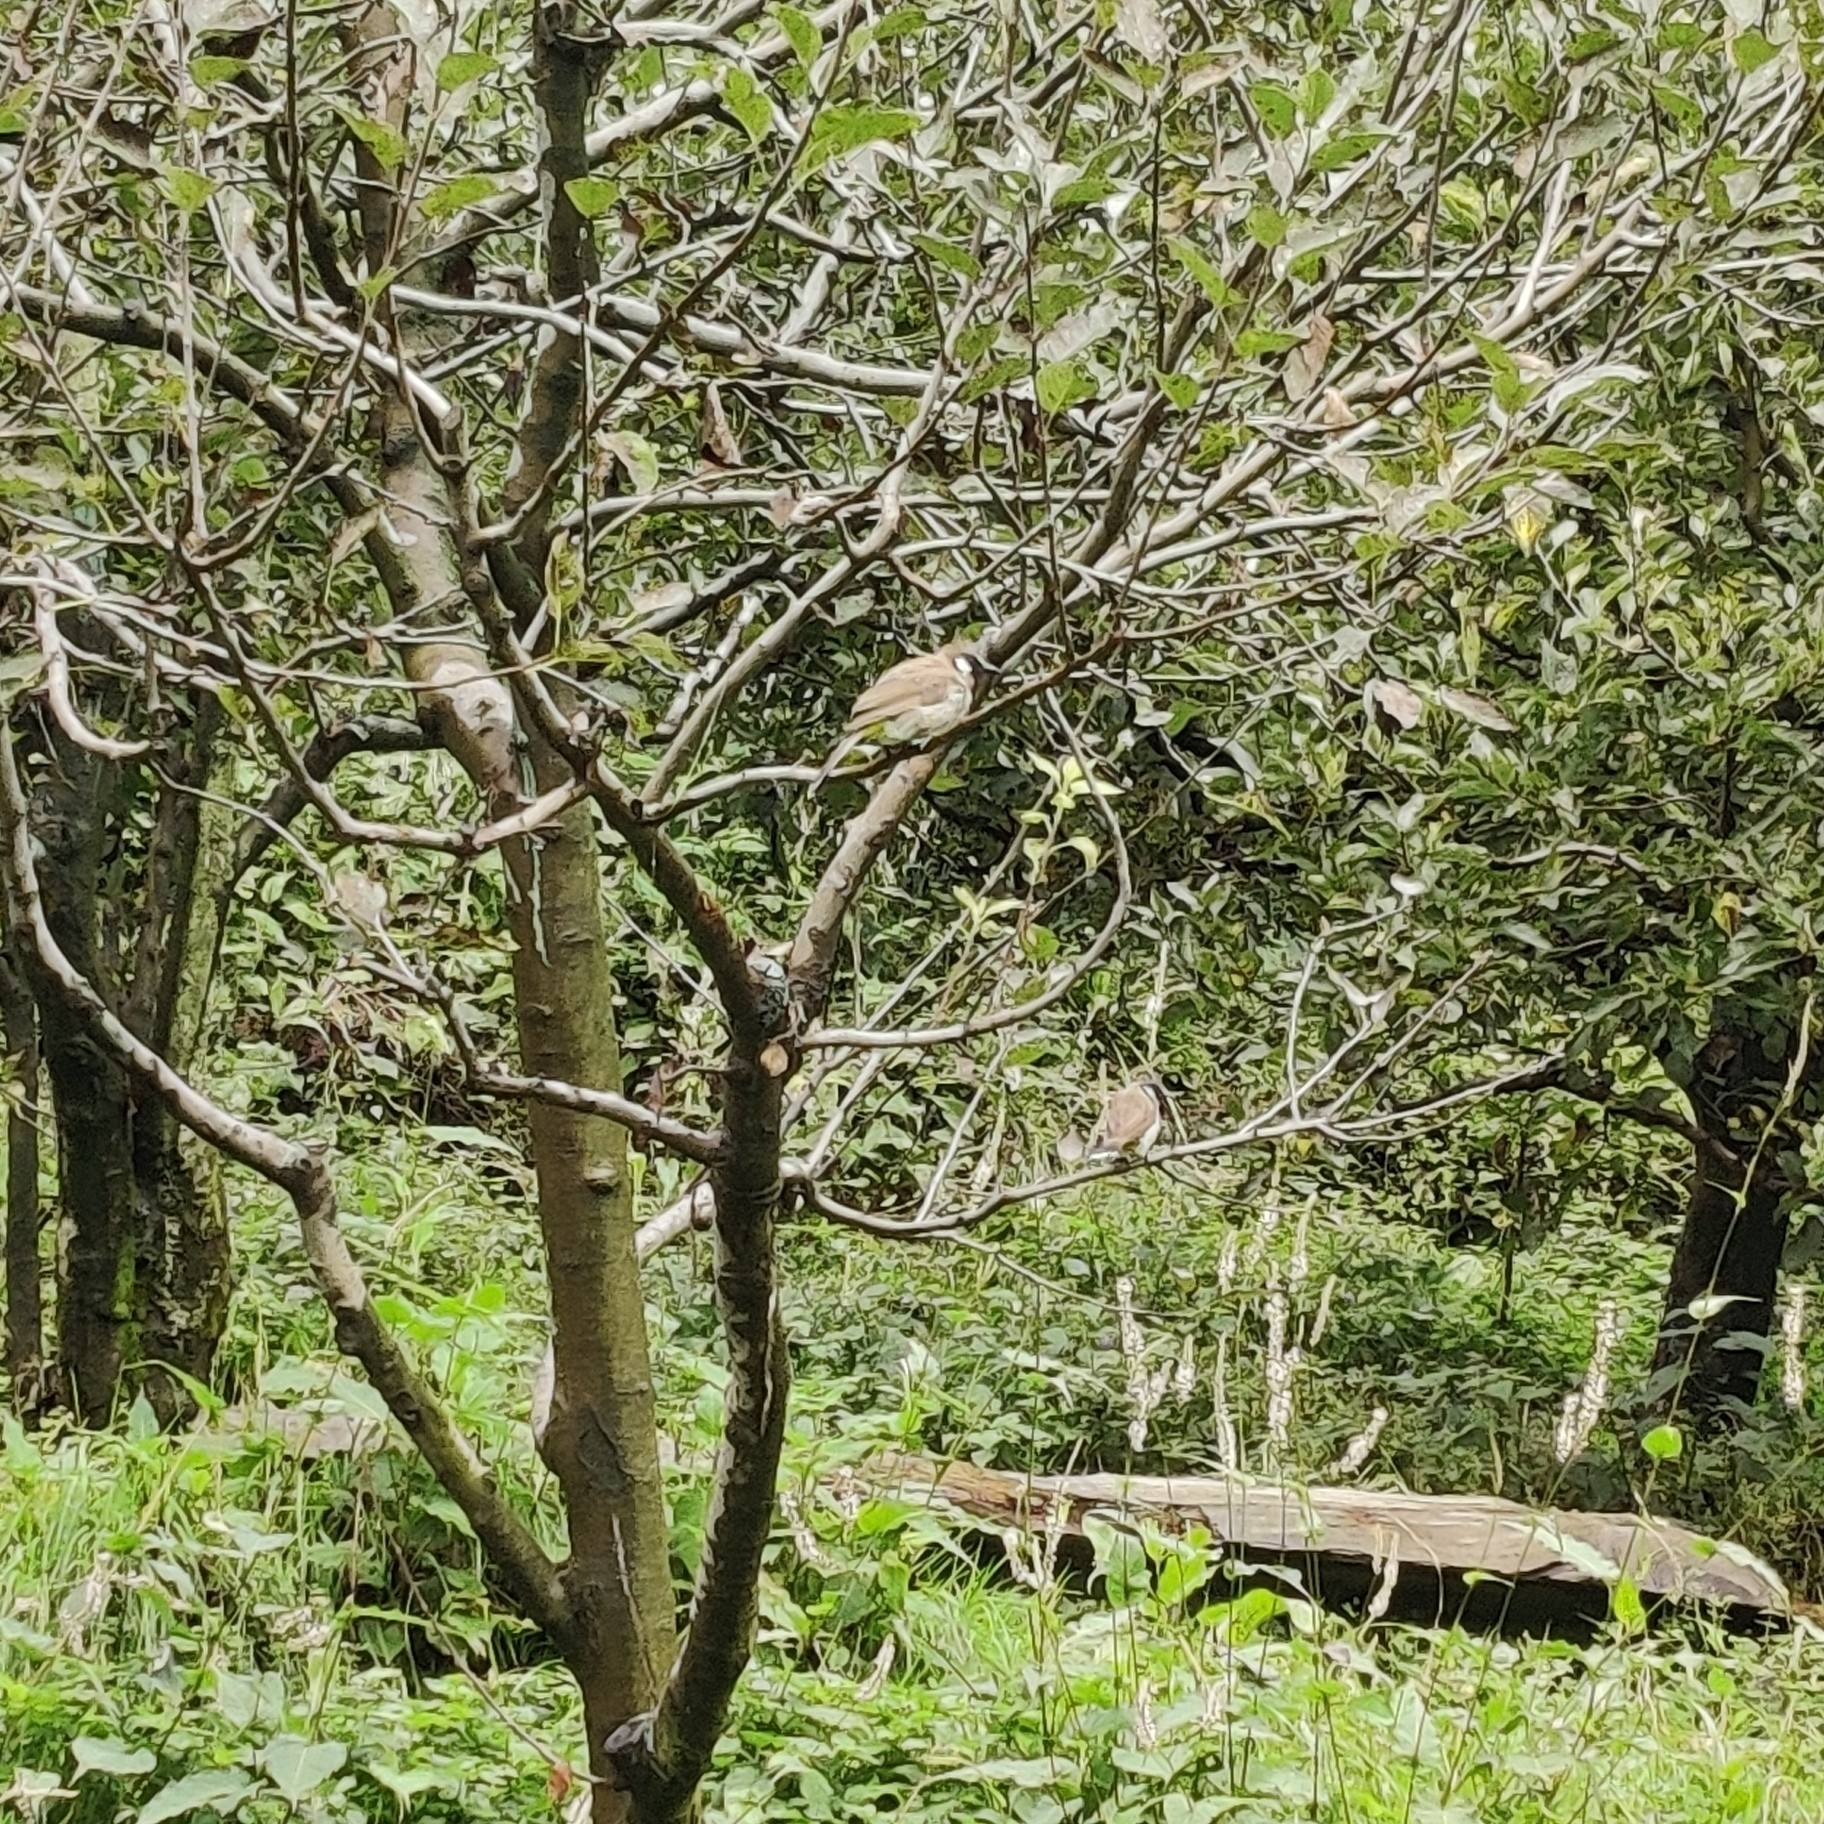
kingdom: Animalia
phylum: Chordata
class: Aves
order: Passeriformes
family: Pycnonotidae
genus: Pycnonotus
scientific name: Pycnonotus leucogenys
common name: Himalayan bulbul
